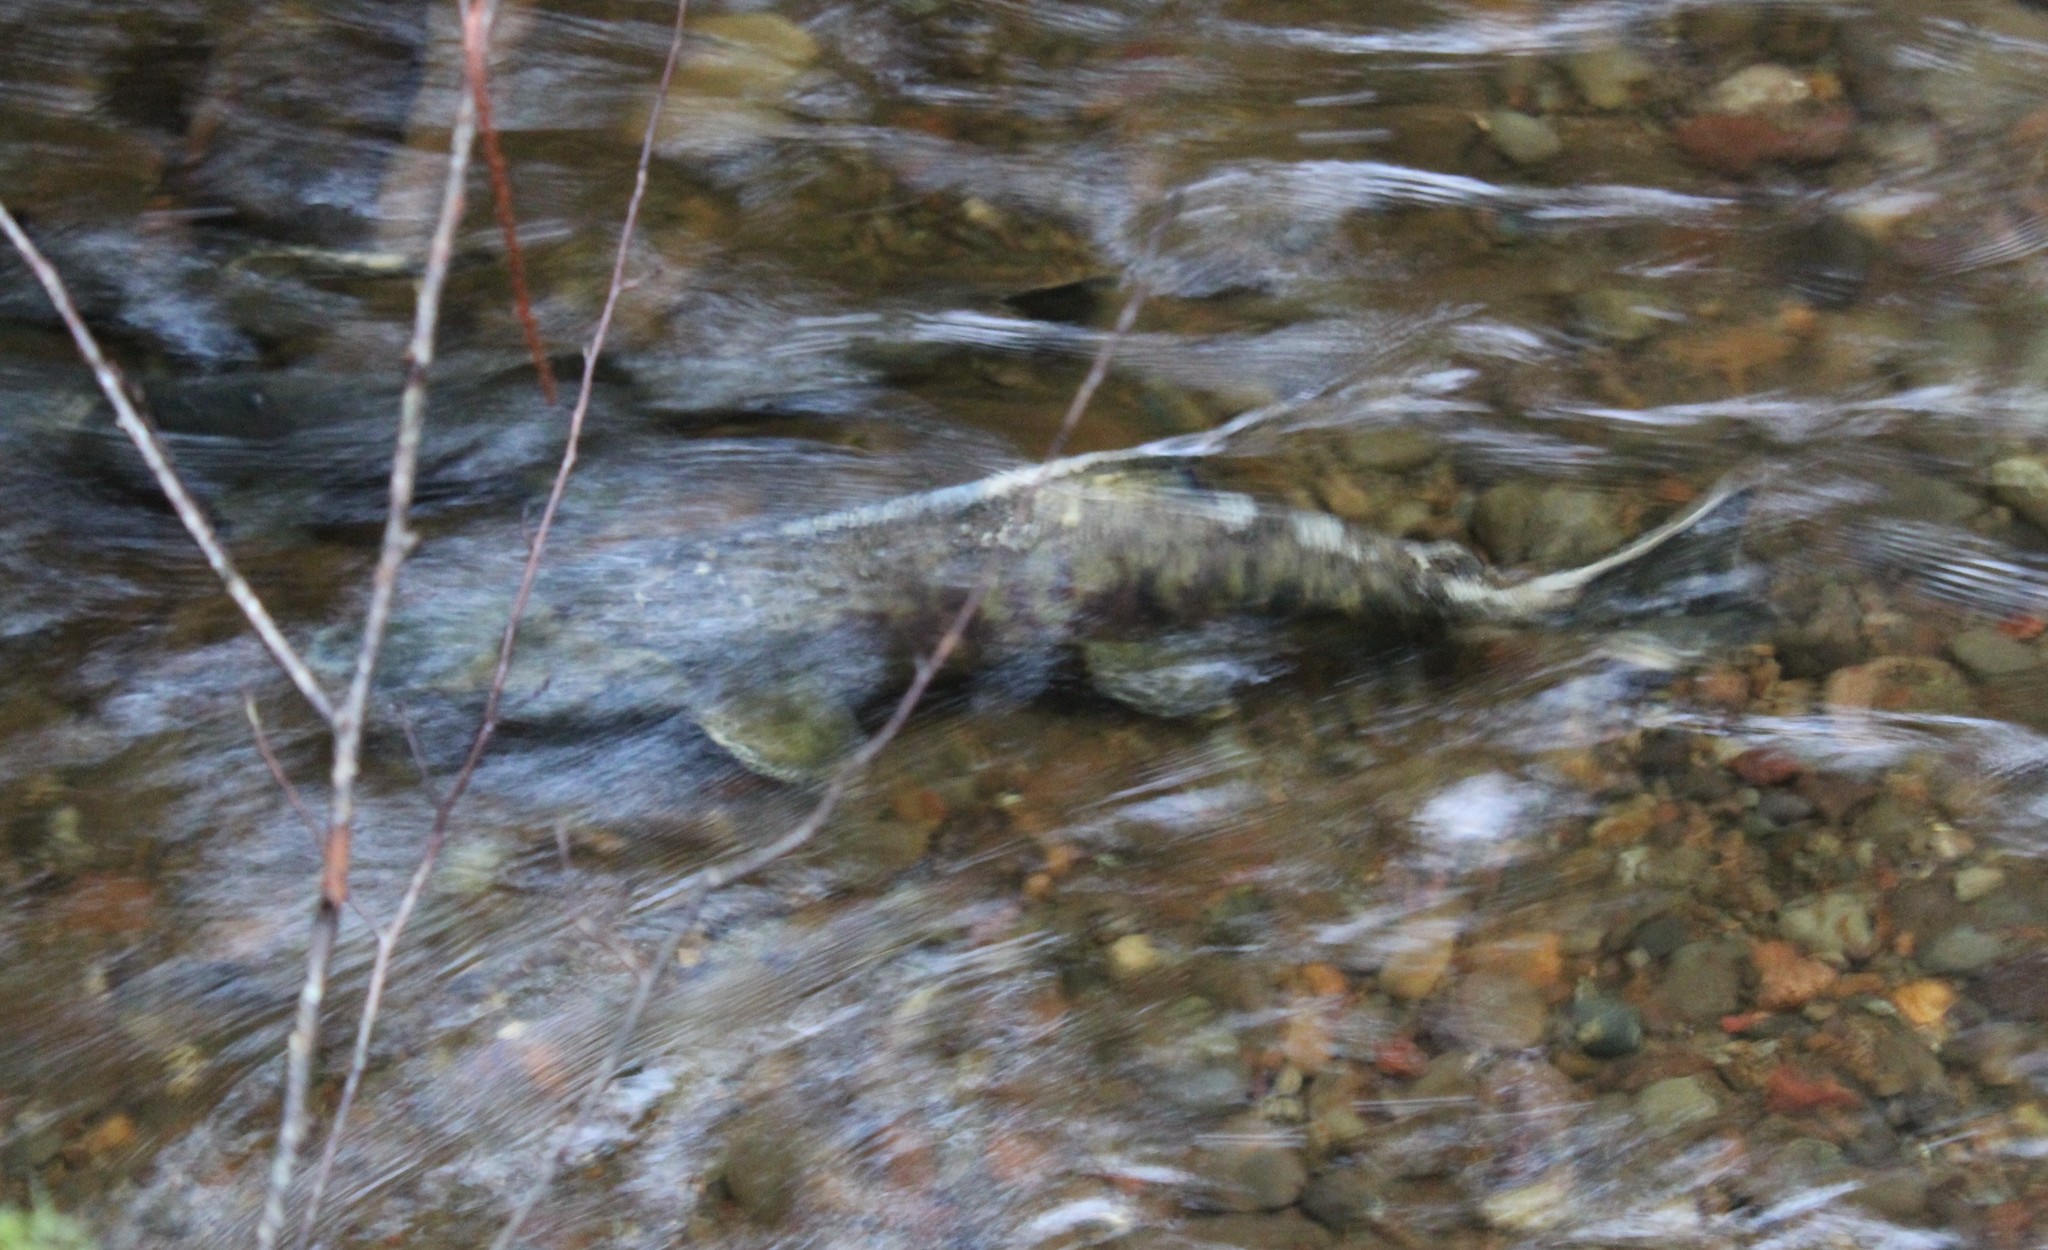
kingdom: Animalia
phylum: Chordata
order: Salmoniformes
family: Salmonidae
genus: Oncorhynchus
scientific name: Oncorhynchus keta
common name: Chum salmon
